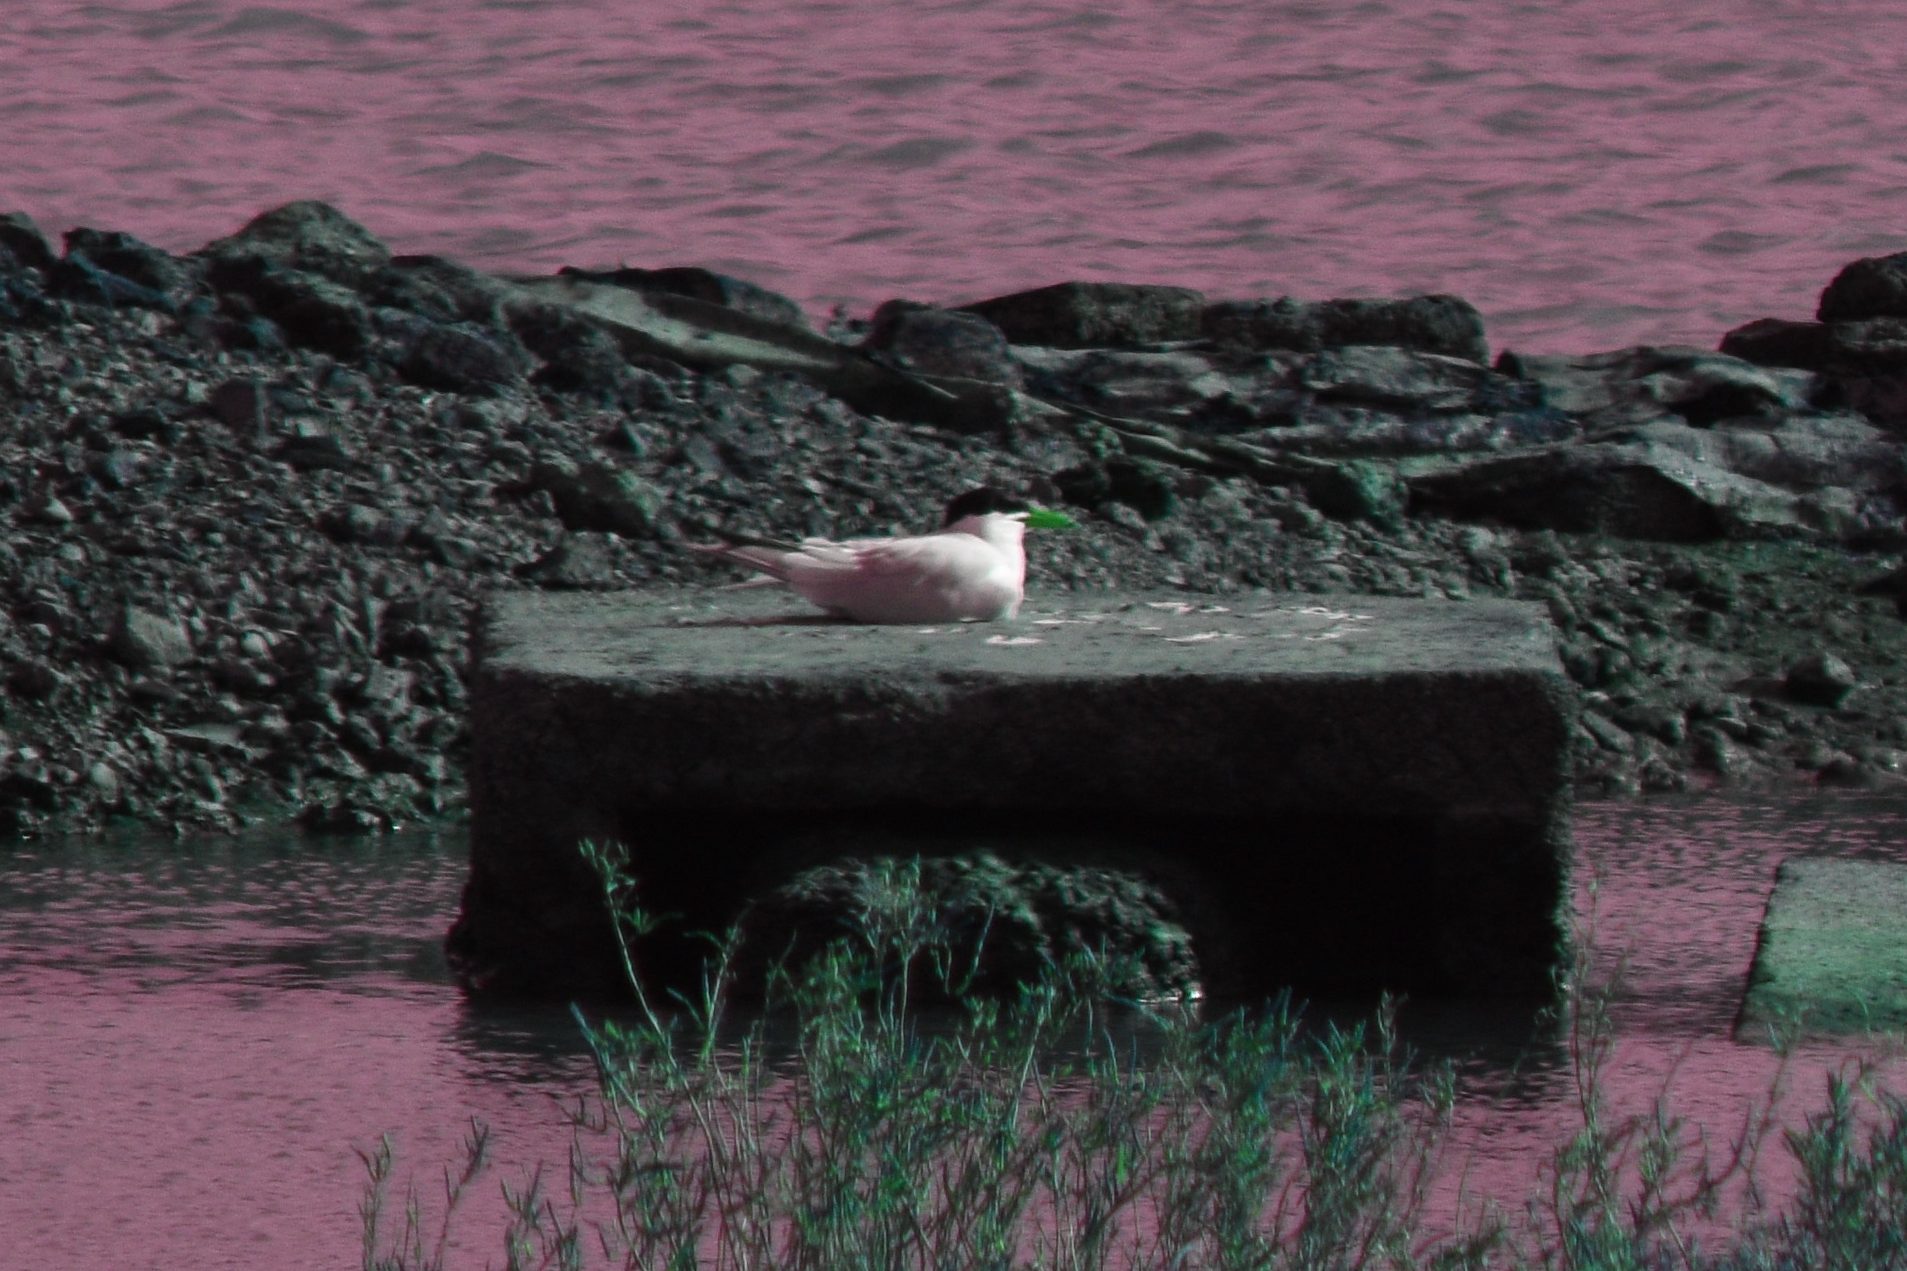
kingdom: Animalia
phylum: Chordata
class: Aves
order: Charadriiformes
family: Laridae
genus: Hydroprogne
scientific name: Hydroprogne caspia
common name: Caspian tern
